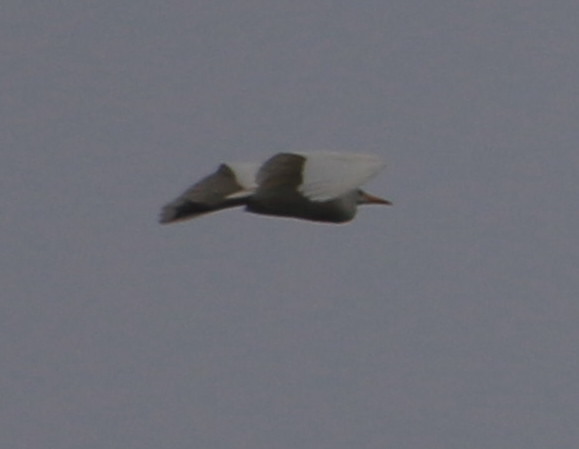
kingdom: Animalia
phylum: Chordata
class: Aves
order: Pelecaniformes
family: Ardeidae
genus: Ardea
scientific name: Ardea alba
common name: Great egret
